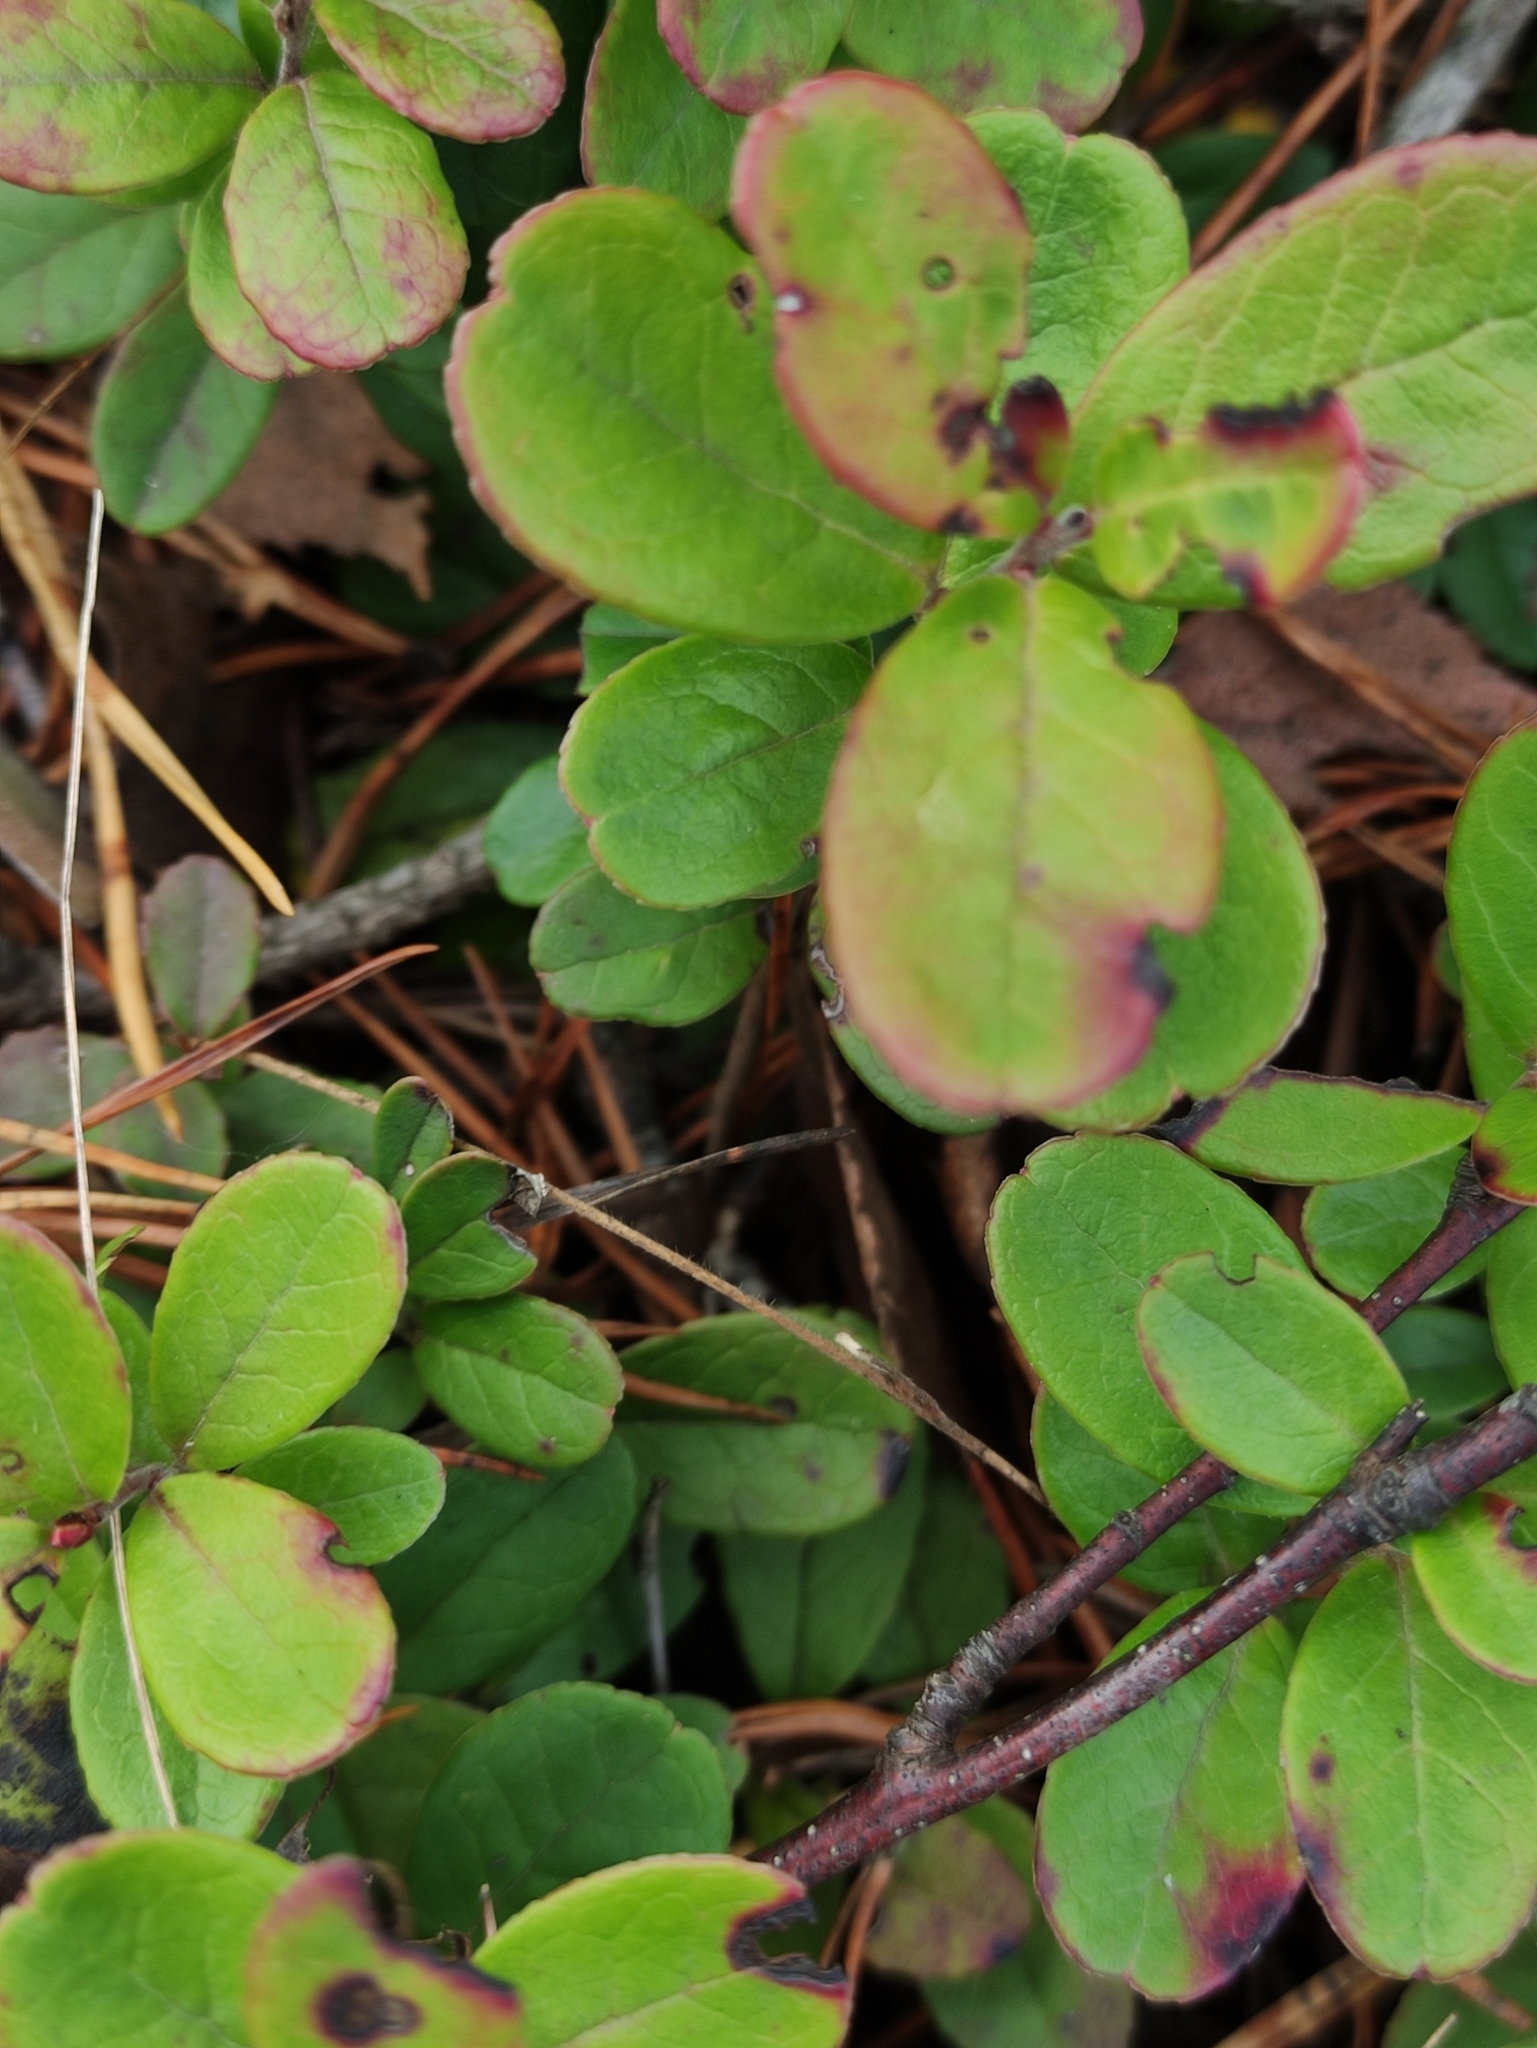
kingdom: Plantae
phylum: Tracheophyta
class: Magnoliopsida
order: Ericales
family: Ericaceae
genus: Vaccinium
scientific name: Vaccinium vitis-idaea
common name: Cowberry
